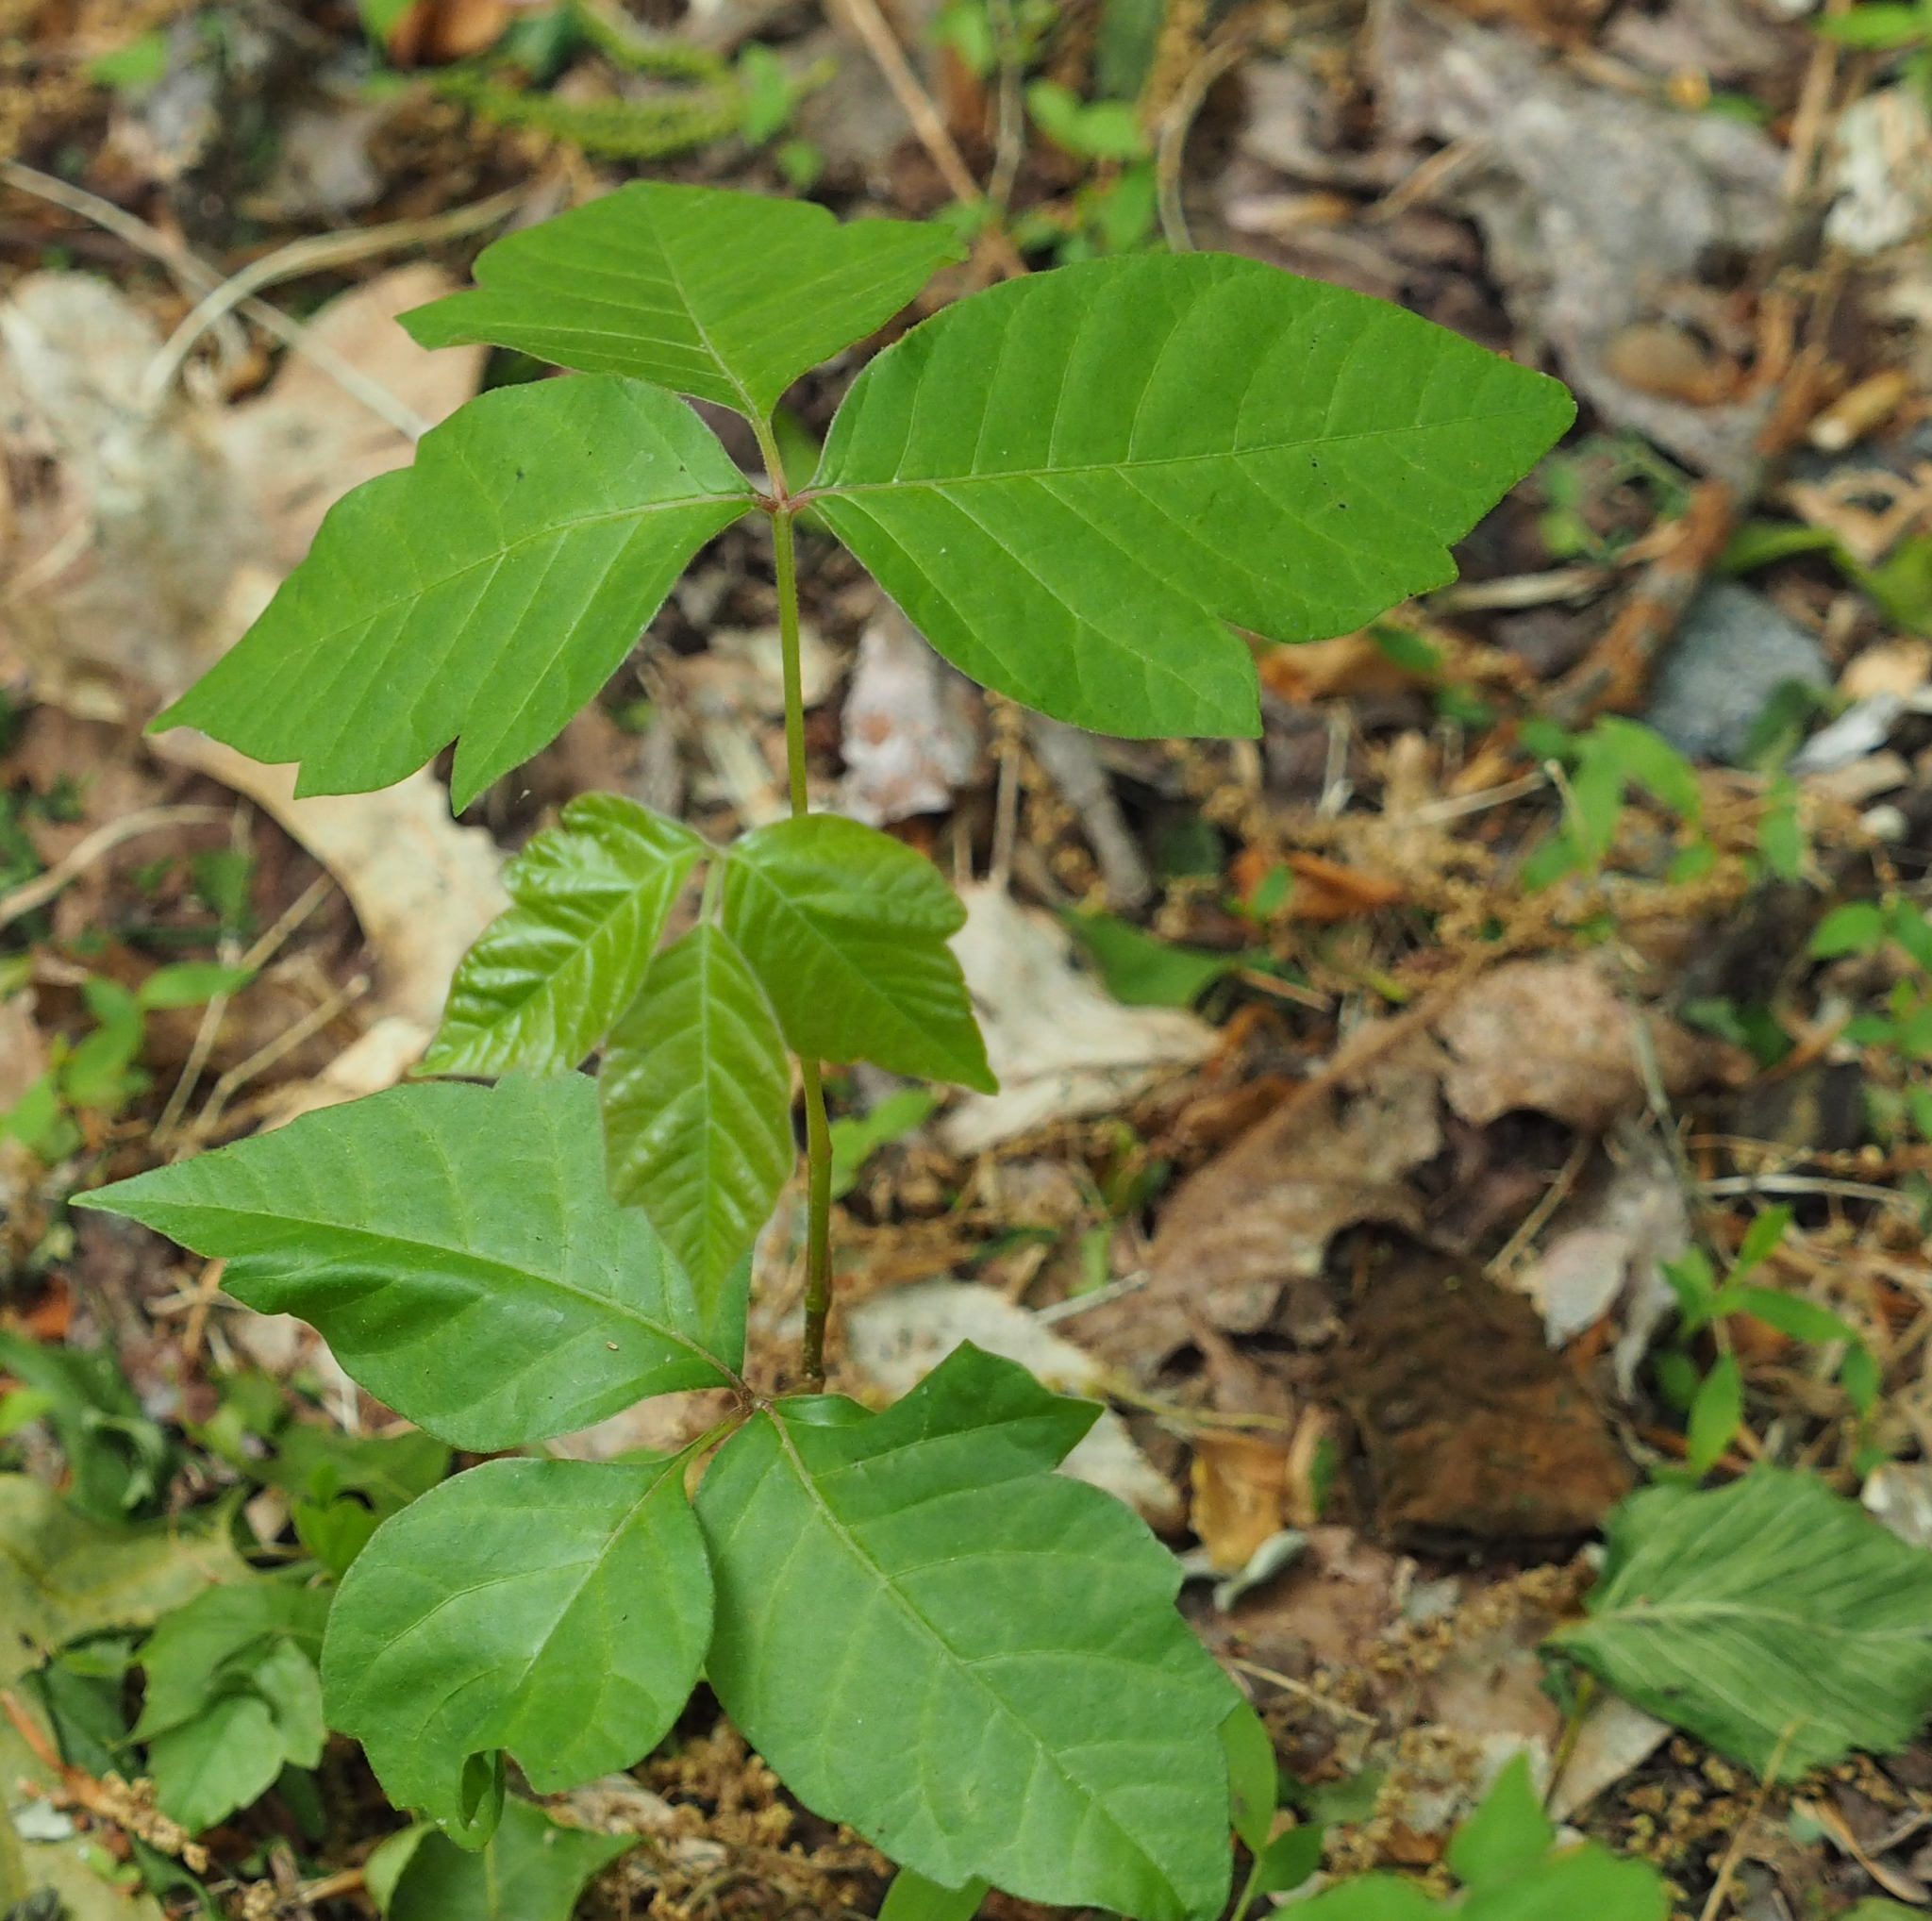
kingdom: Plantae
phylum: Tracheophyta
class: Magnoliopsida
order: Sapindales
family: Anacardiaceae
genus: Toxicodendron
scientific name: Toxicodendron radicans
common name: Poison ivy
